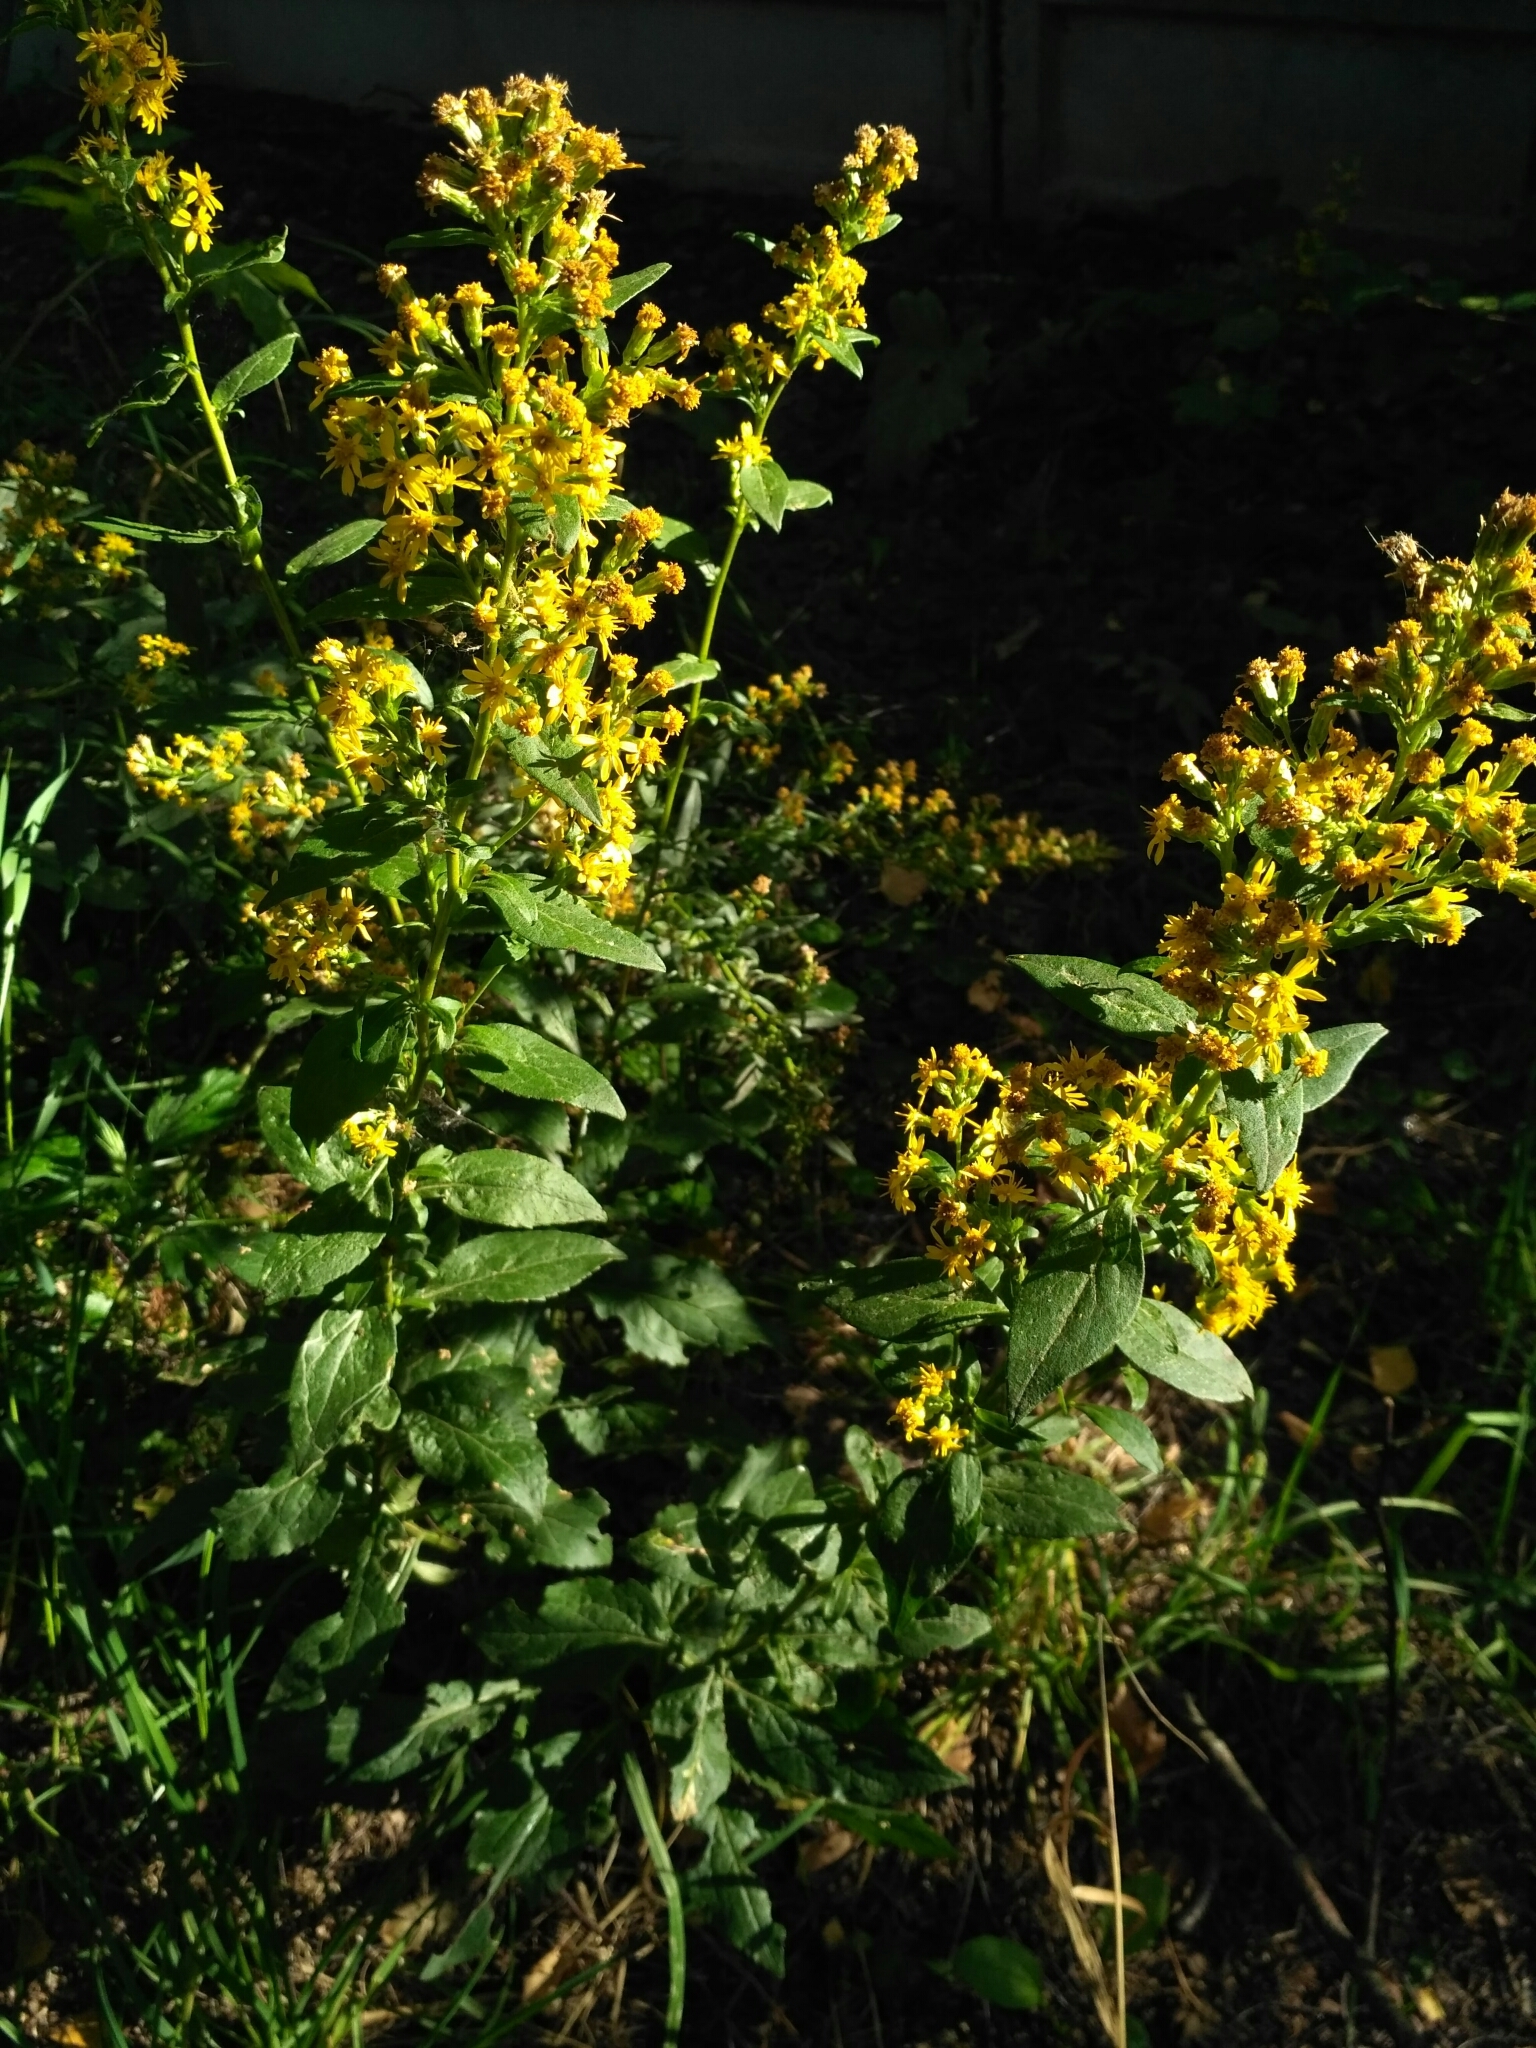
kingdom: Plantae
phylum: Tracheophyta
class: Magnoliopsida
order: Asterales
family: Asteraceae
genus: Solidago
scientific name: Solidago virgaurea
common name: Goldenrod
